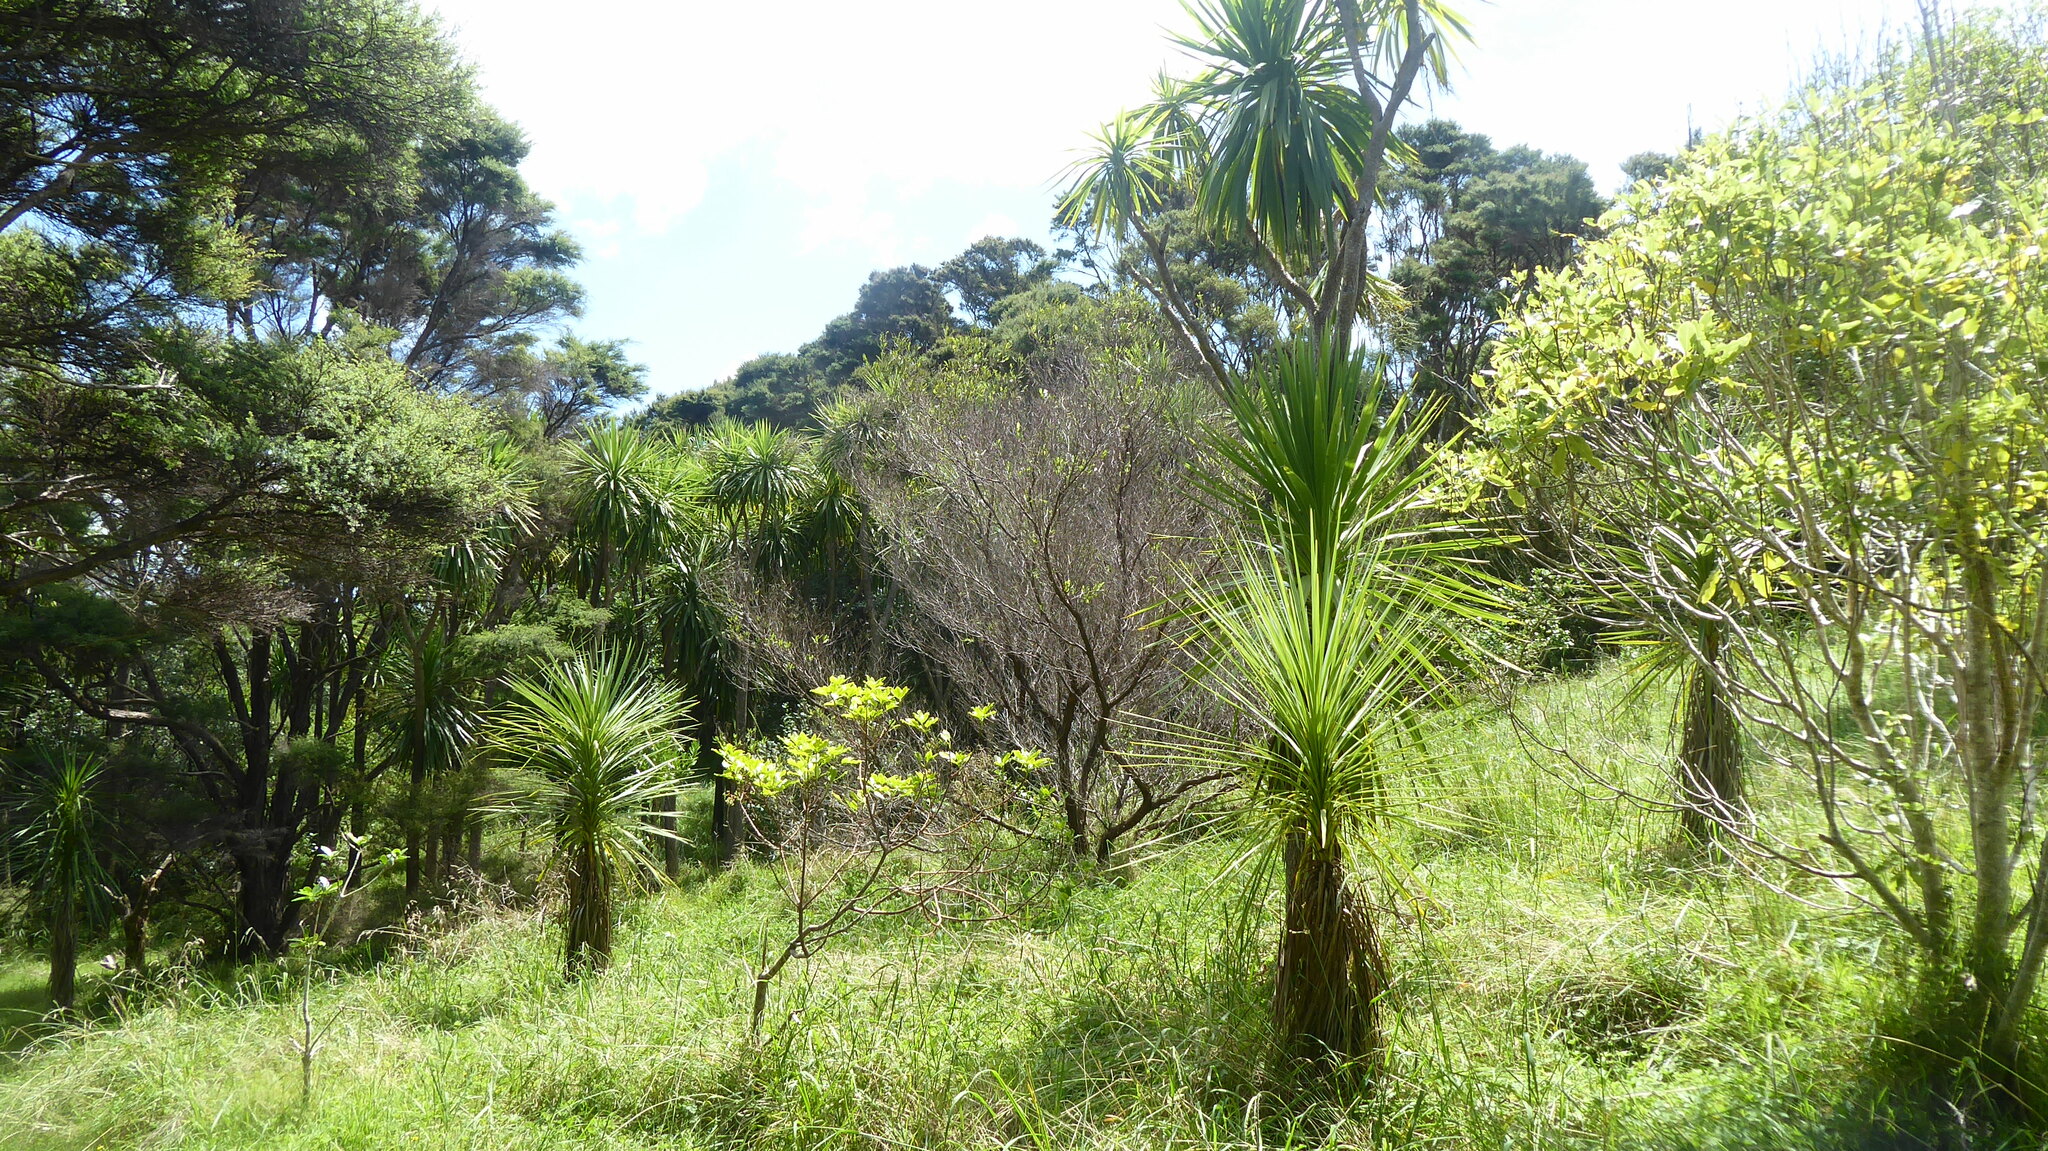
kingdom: Plantae
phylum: Tracheophyta
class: Liliopsida
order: Asparagales
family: Asparagaceae
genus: Cordyline
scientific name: Cordyline australis
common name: Cabbage-palm
